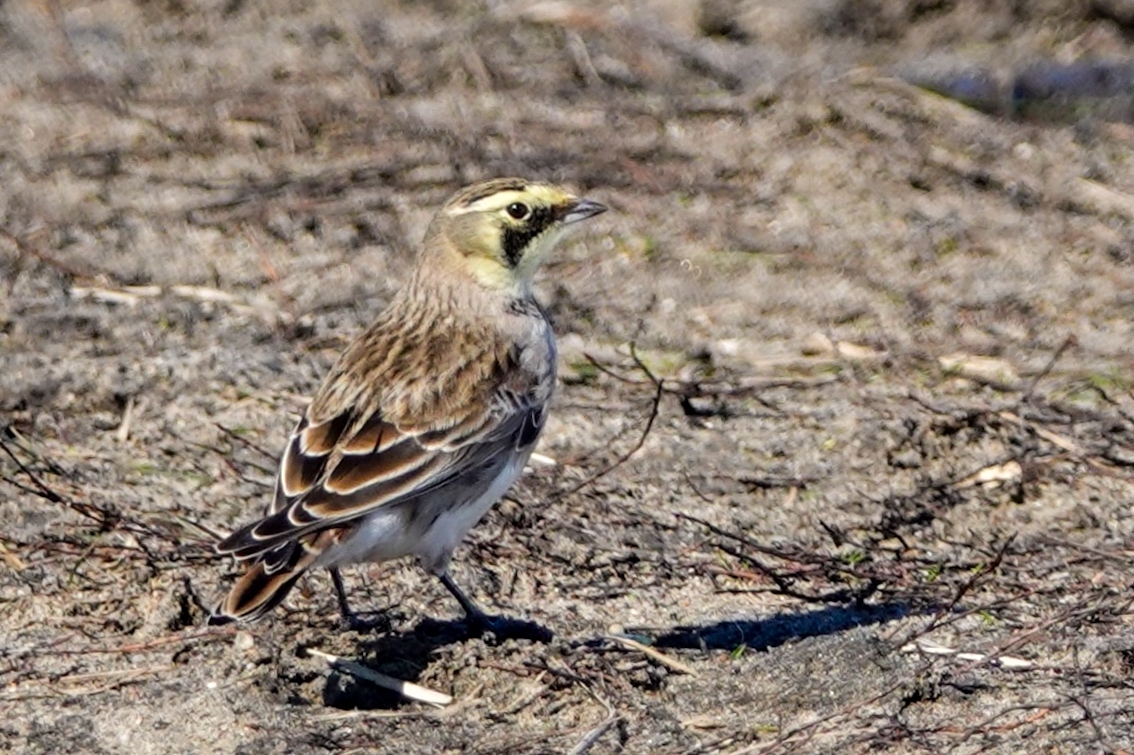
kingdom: Animalia
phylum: Chordata
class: Aves
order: Passeriformes
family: Alaudidae
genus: Eremophila
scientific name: Eremophila alpestris
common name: Horned lark
